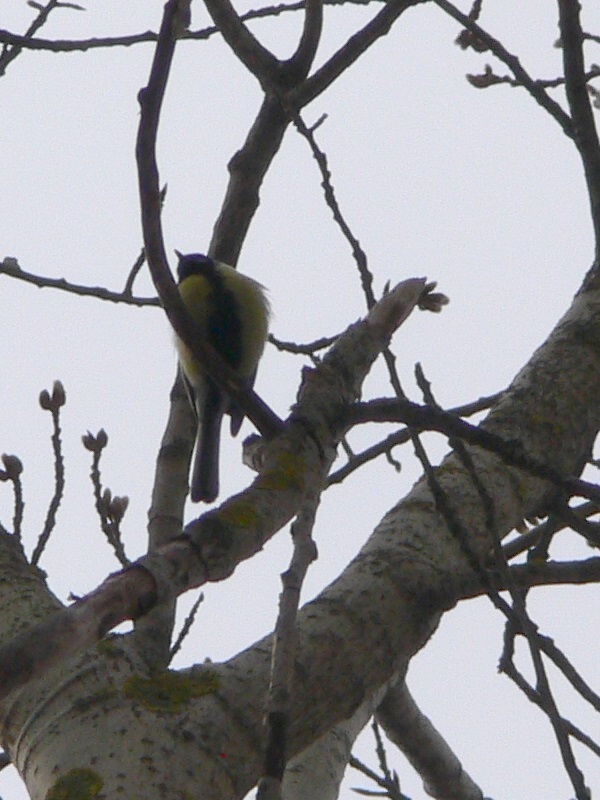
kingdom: Animalia
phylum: Chordata
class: Aves
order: Passeriformes
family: Paridae
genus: Parus
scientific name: Parus major
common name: Great tit
